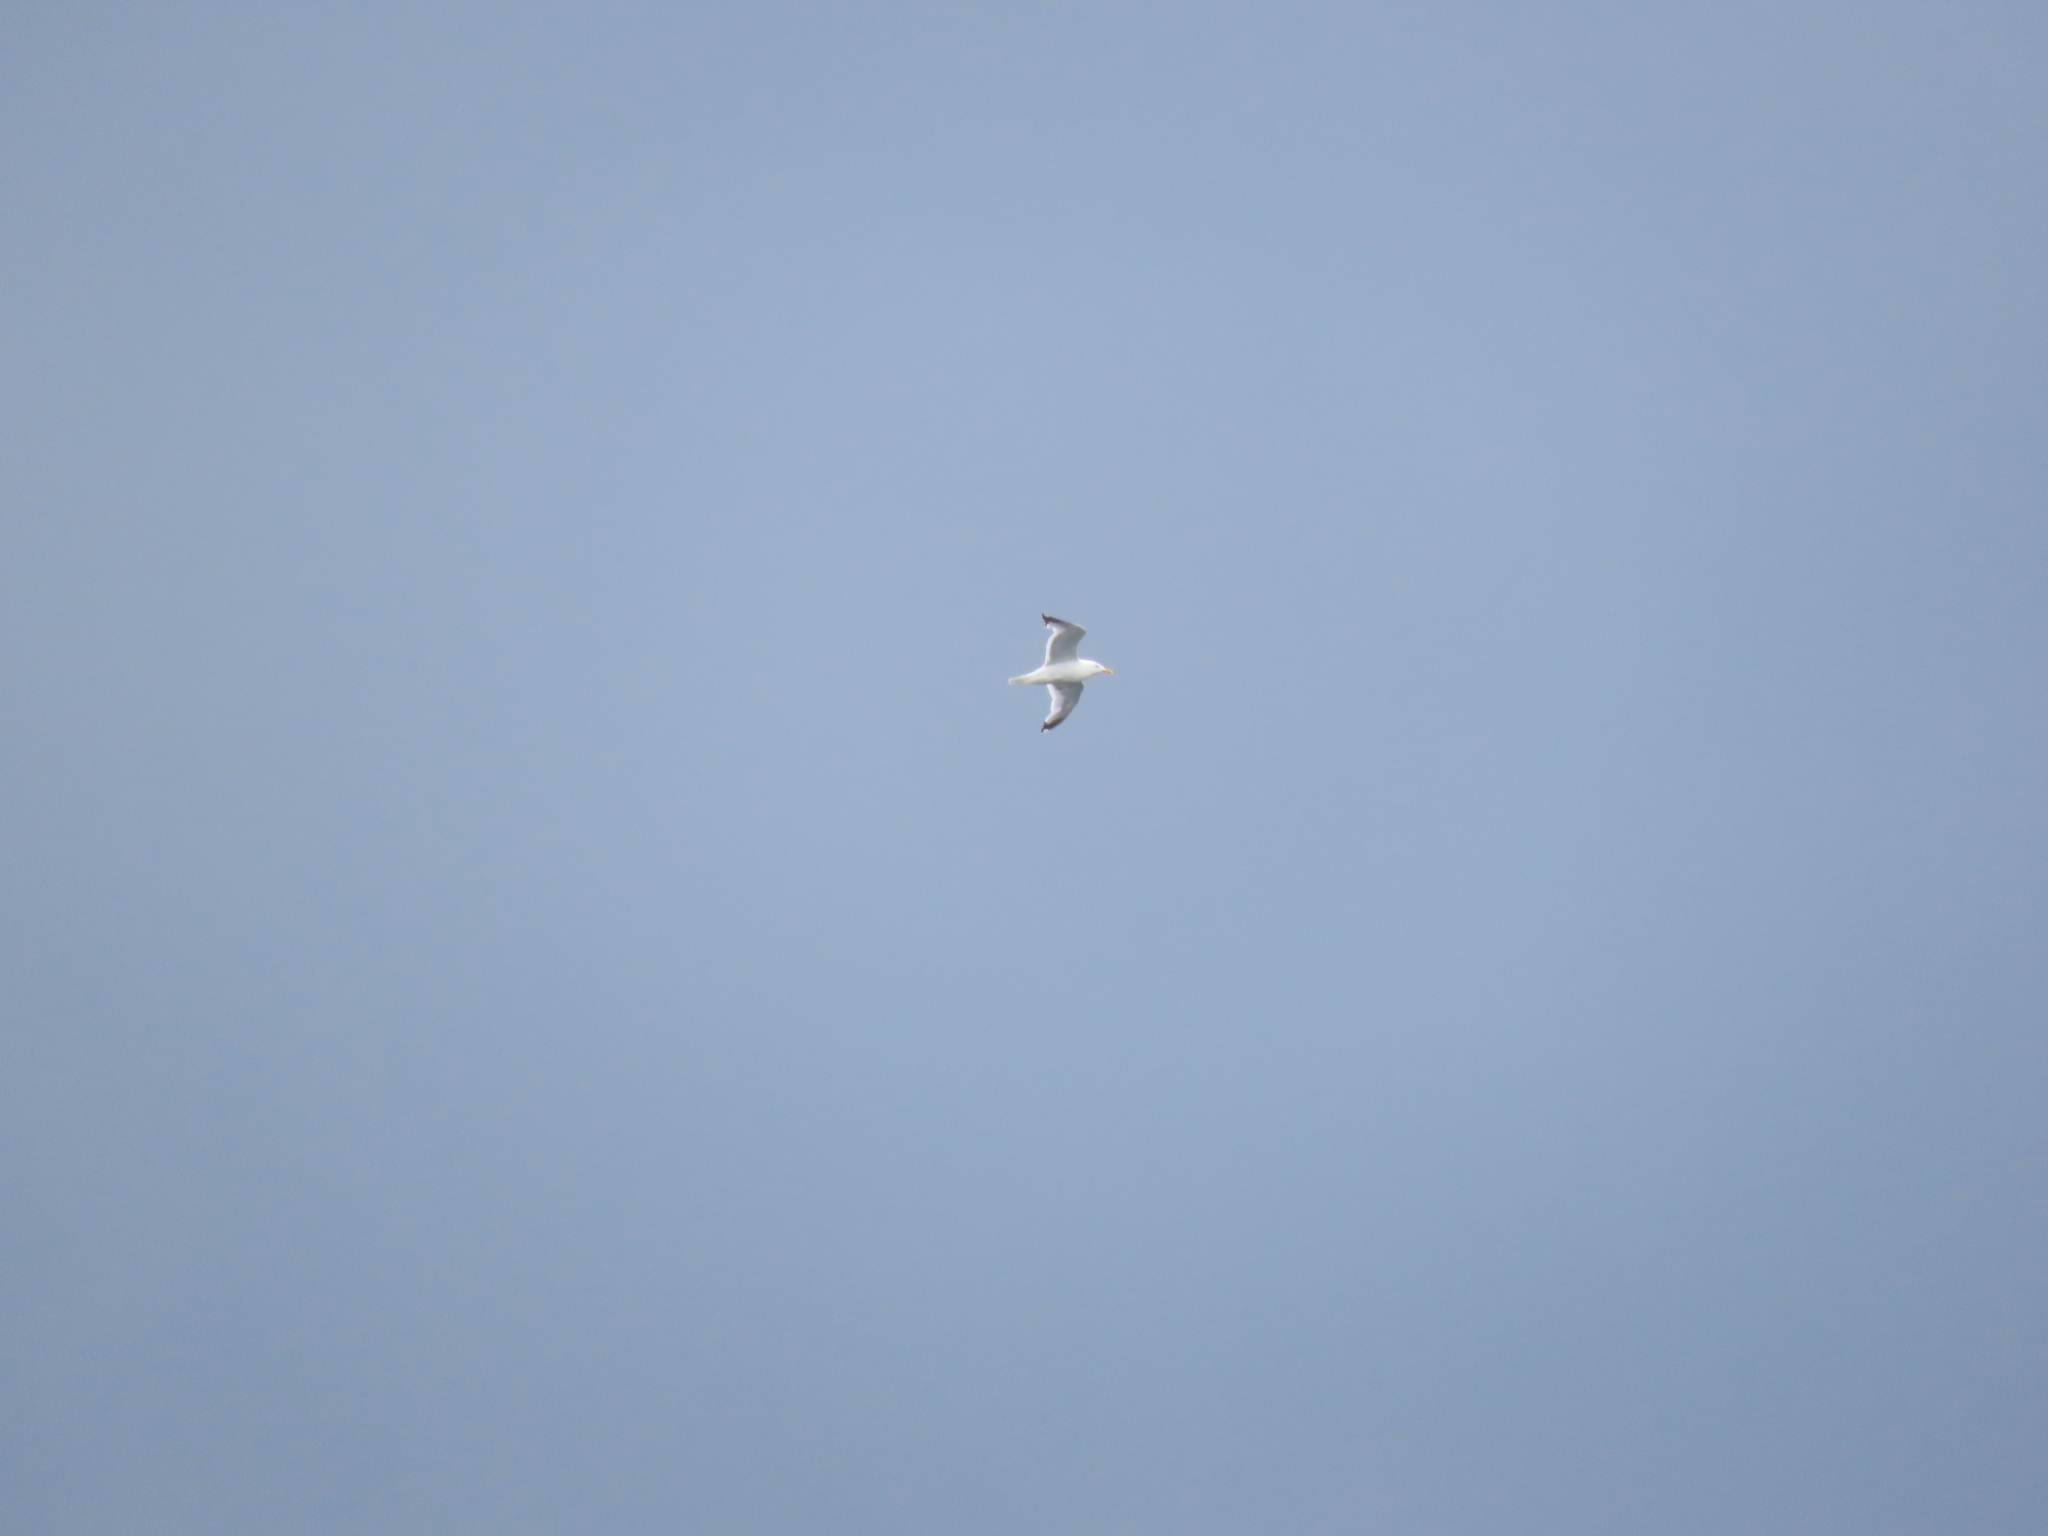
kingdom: Animalia
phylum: Chordata
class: Aves
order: Charadriiformes
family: Laridae
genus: Larus
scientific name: Larus argentatus
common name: Herring gull
